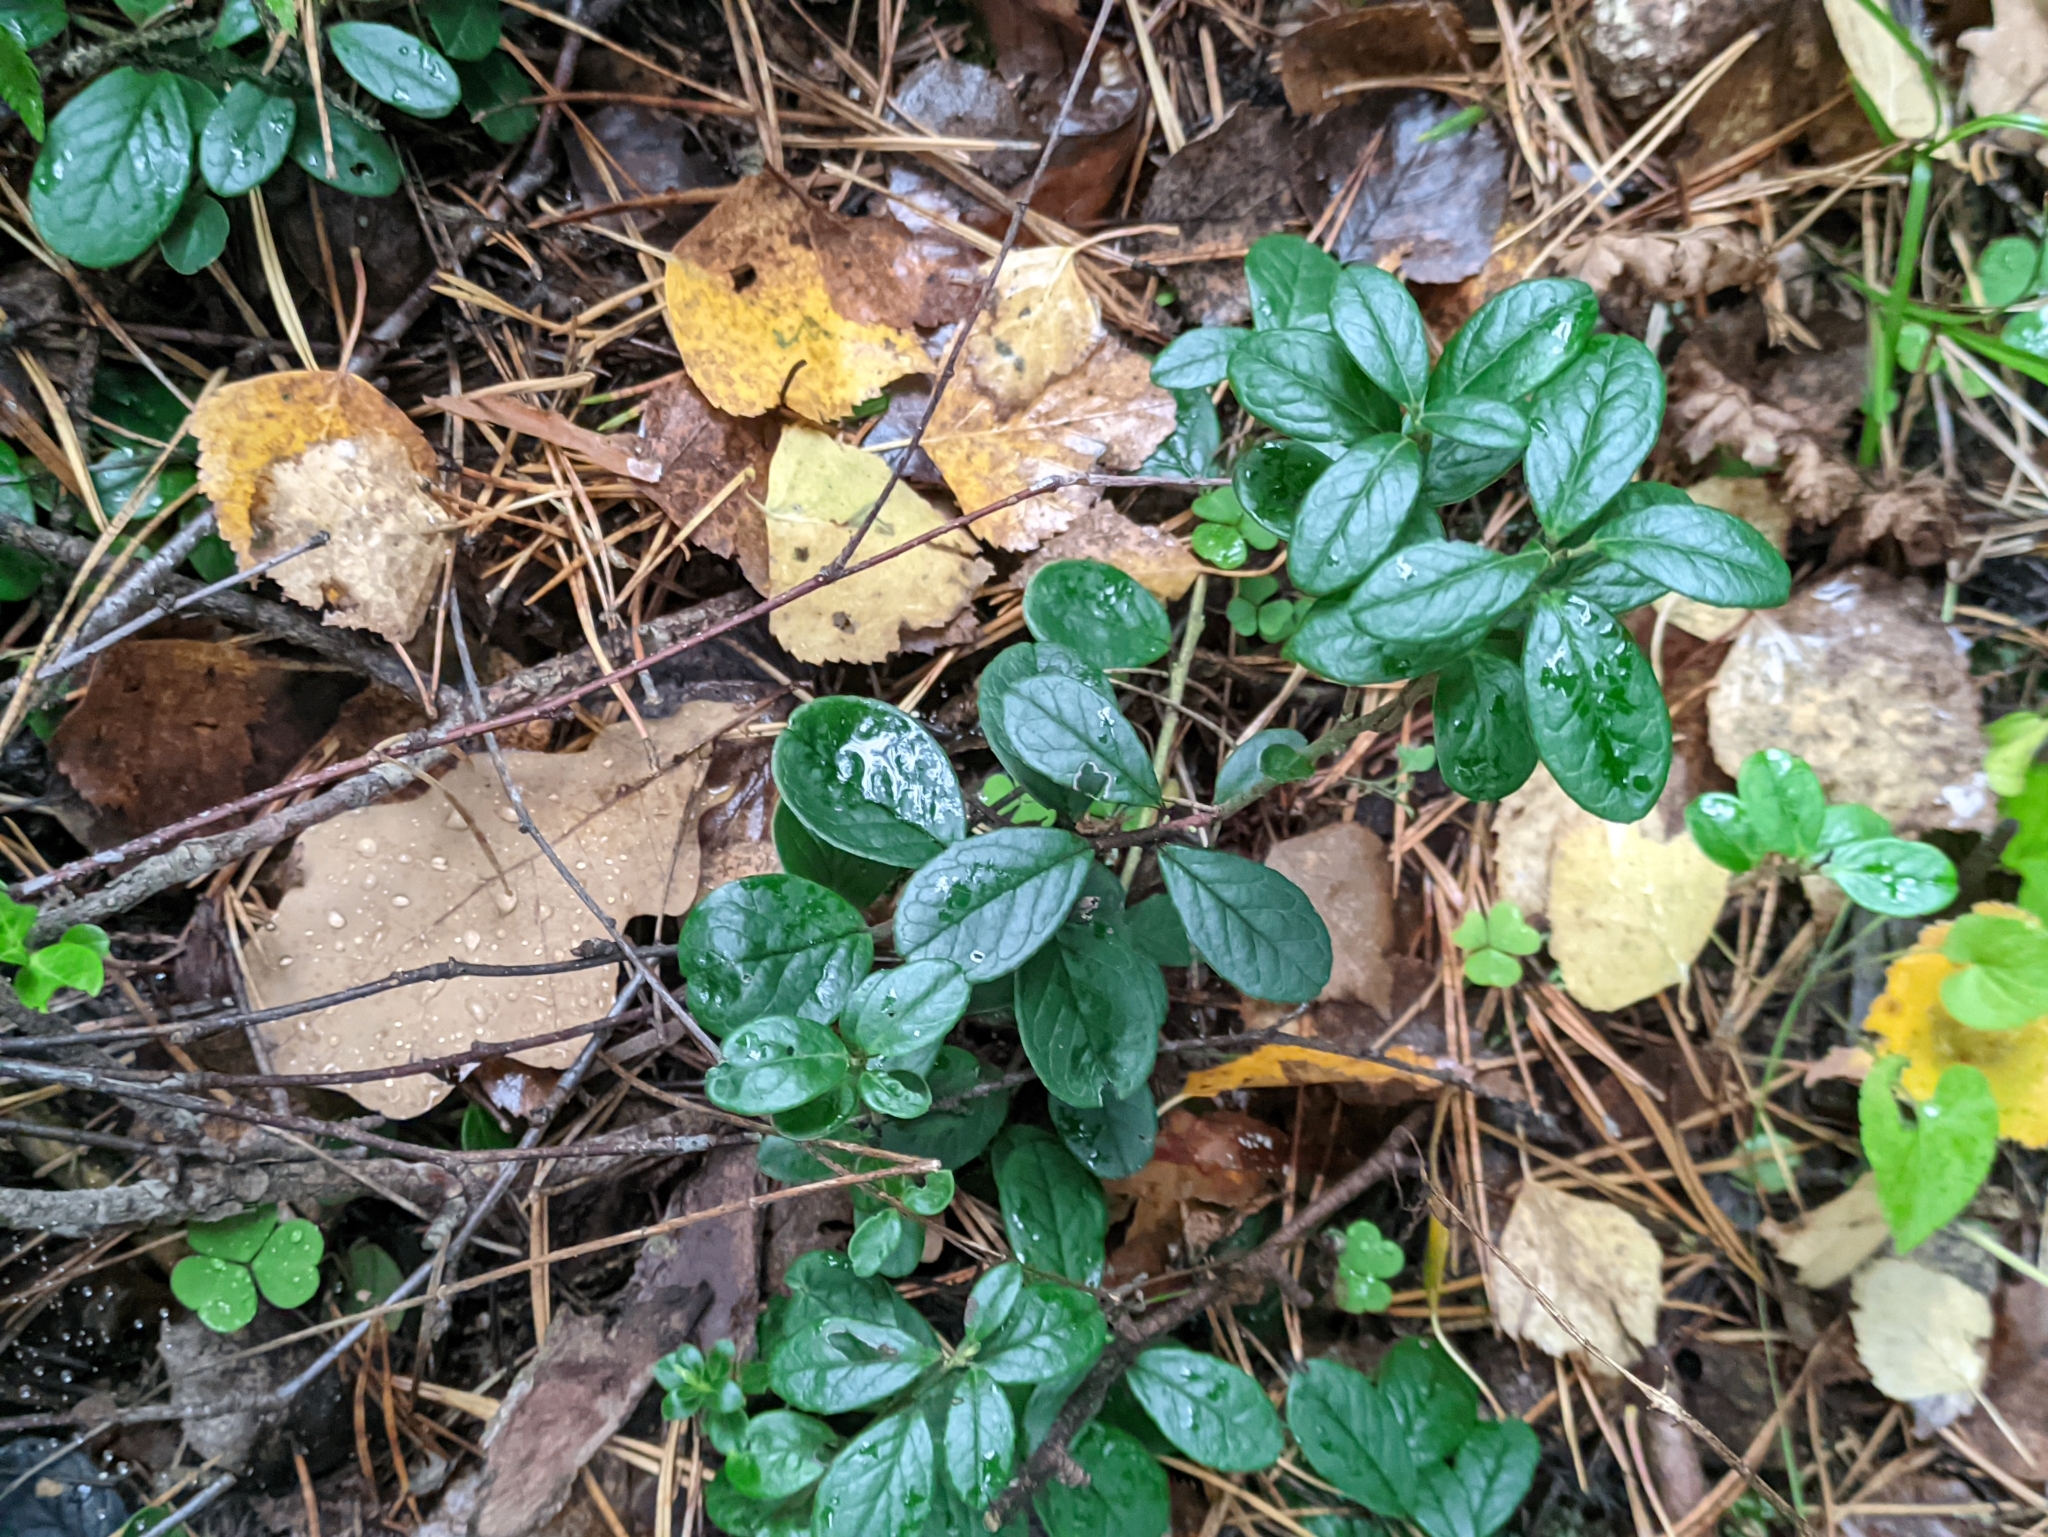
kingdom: Plantae
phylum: Tracheophyta
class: Magnoliopsida
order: Ericales
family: Ericaceae
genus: Vaccinium
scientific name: Vaccinium vitis-idaea
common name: Cowberry
